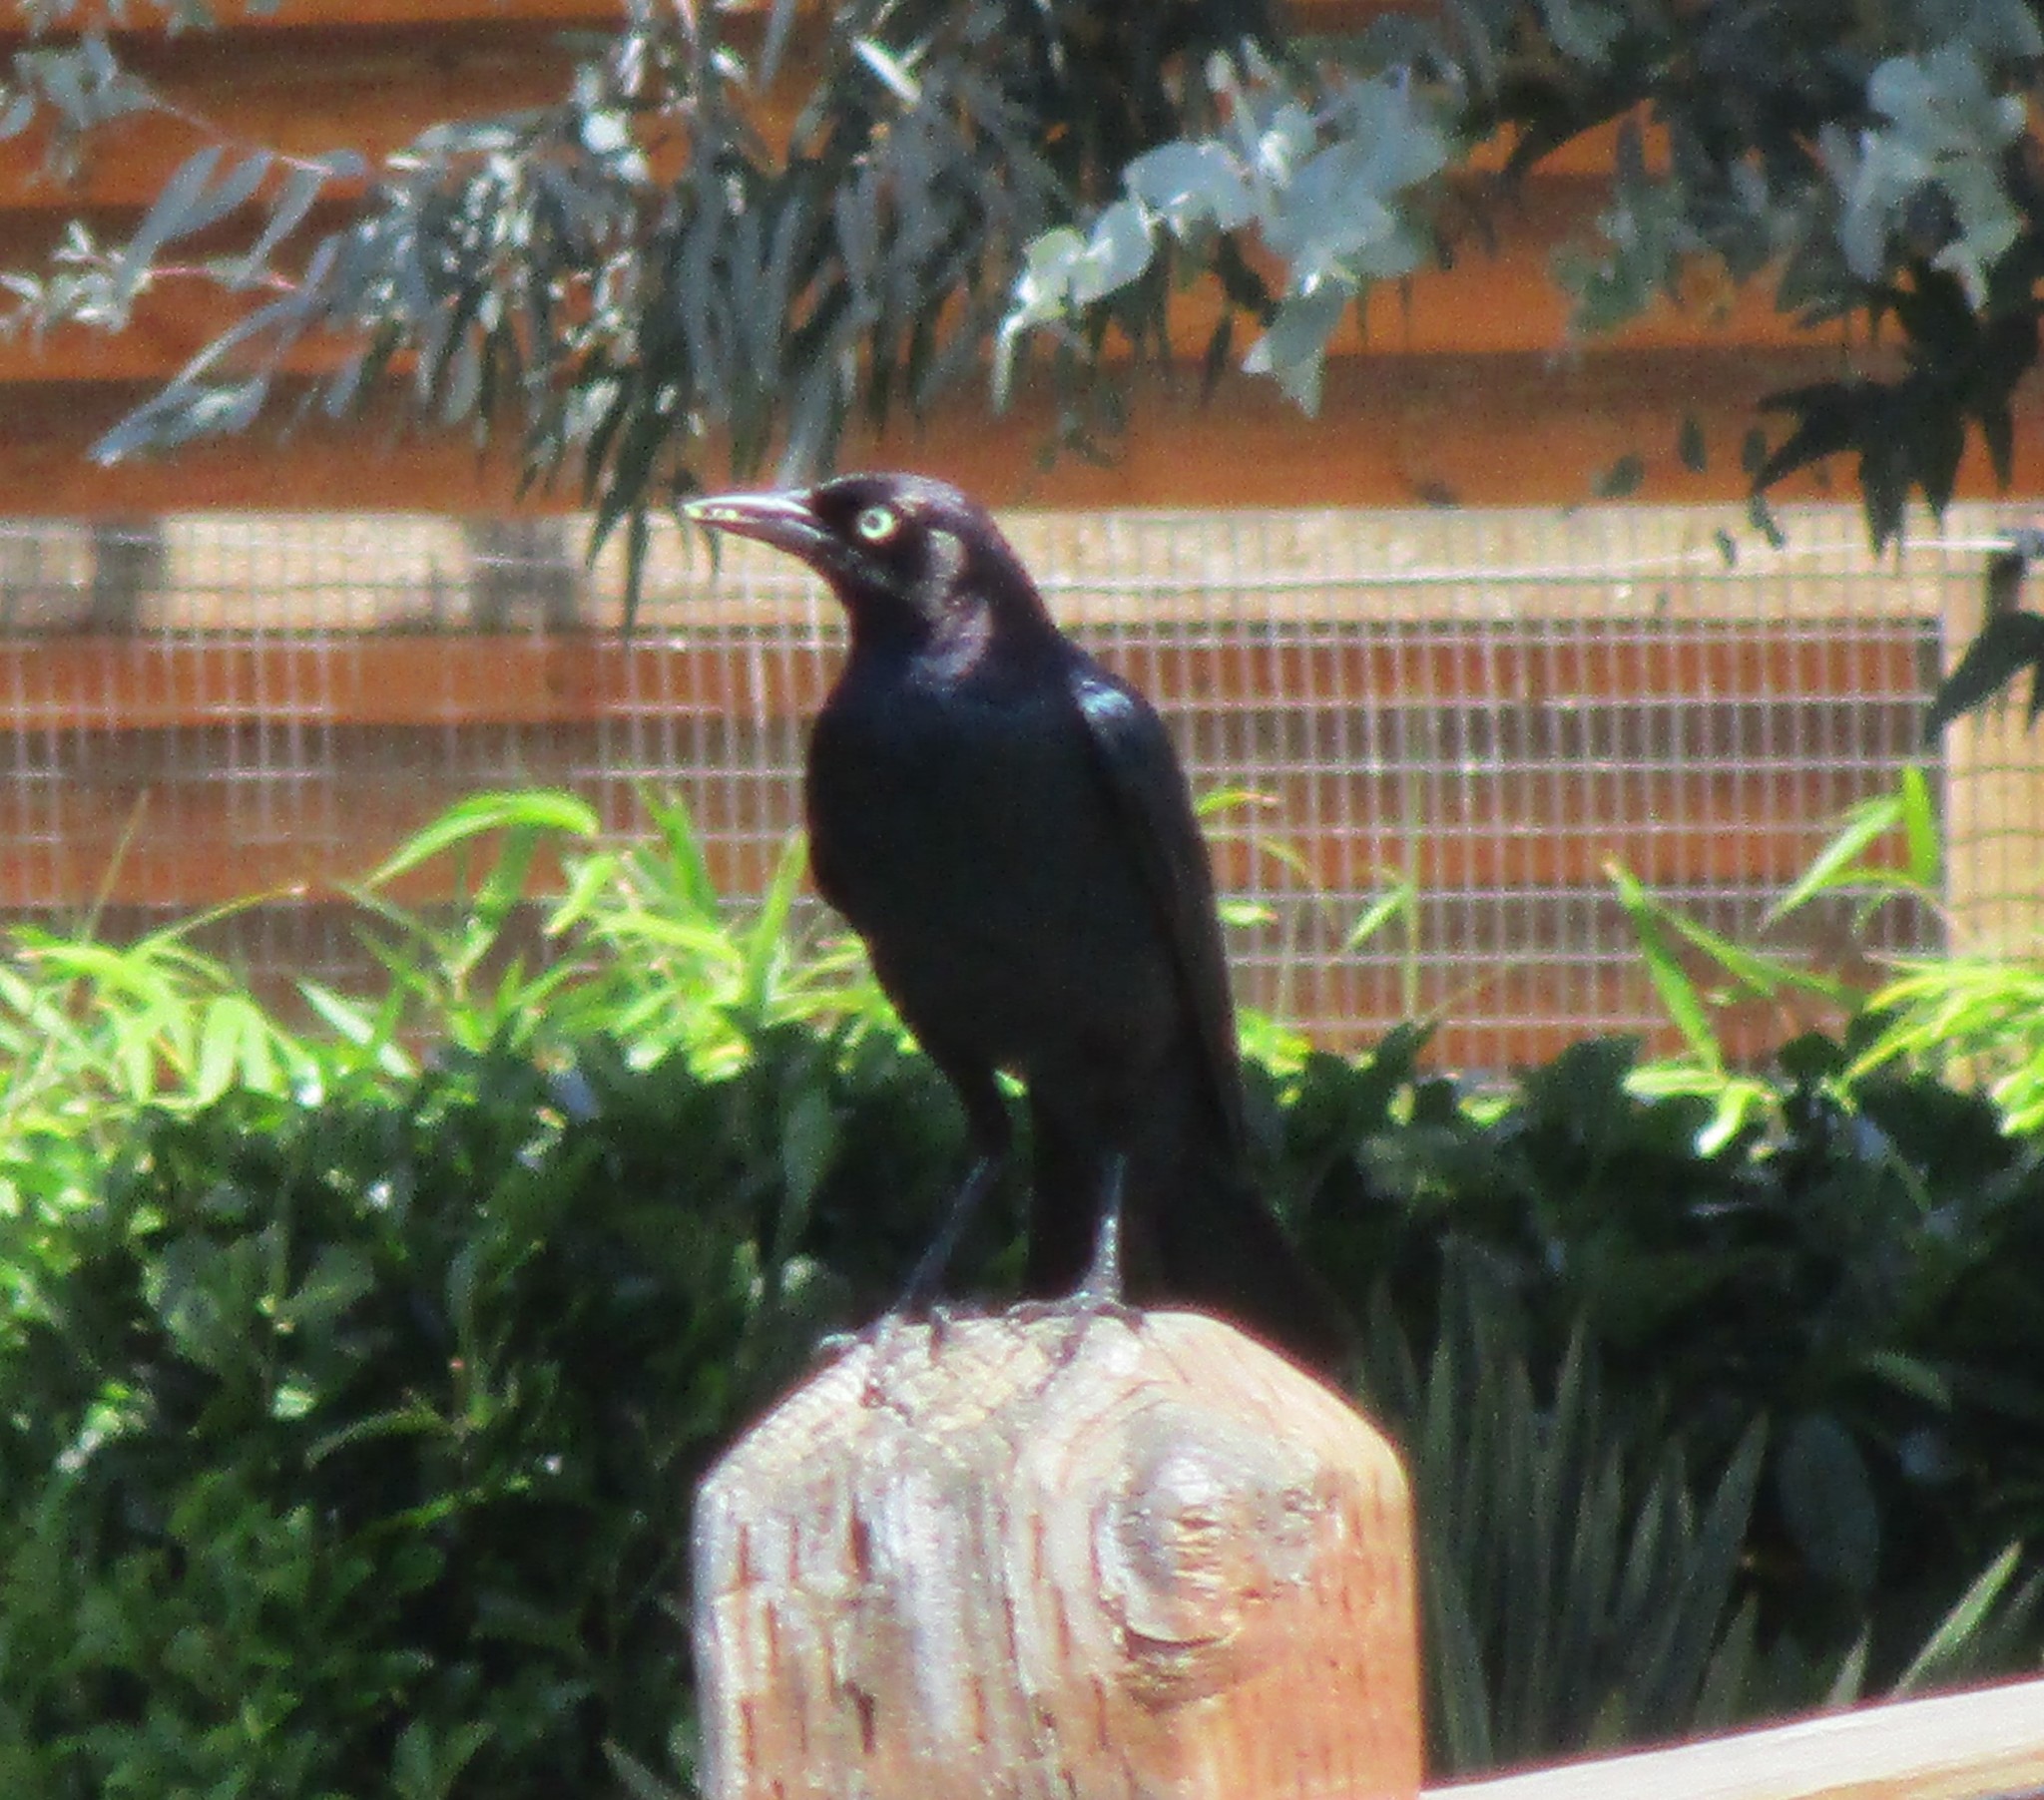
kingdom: Animalia
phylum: Chordata
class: Aves
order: Passeriformes
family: Icteridae
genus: Euphagus
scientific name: Euphagus cyanocephalus
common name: Brewer's blackbird
